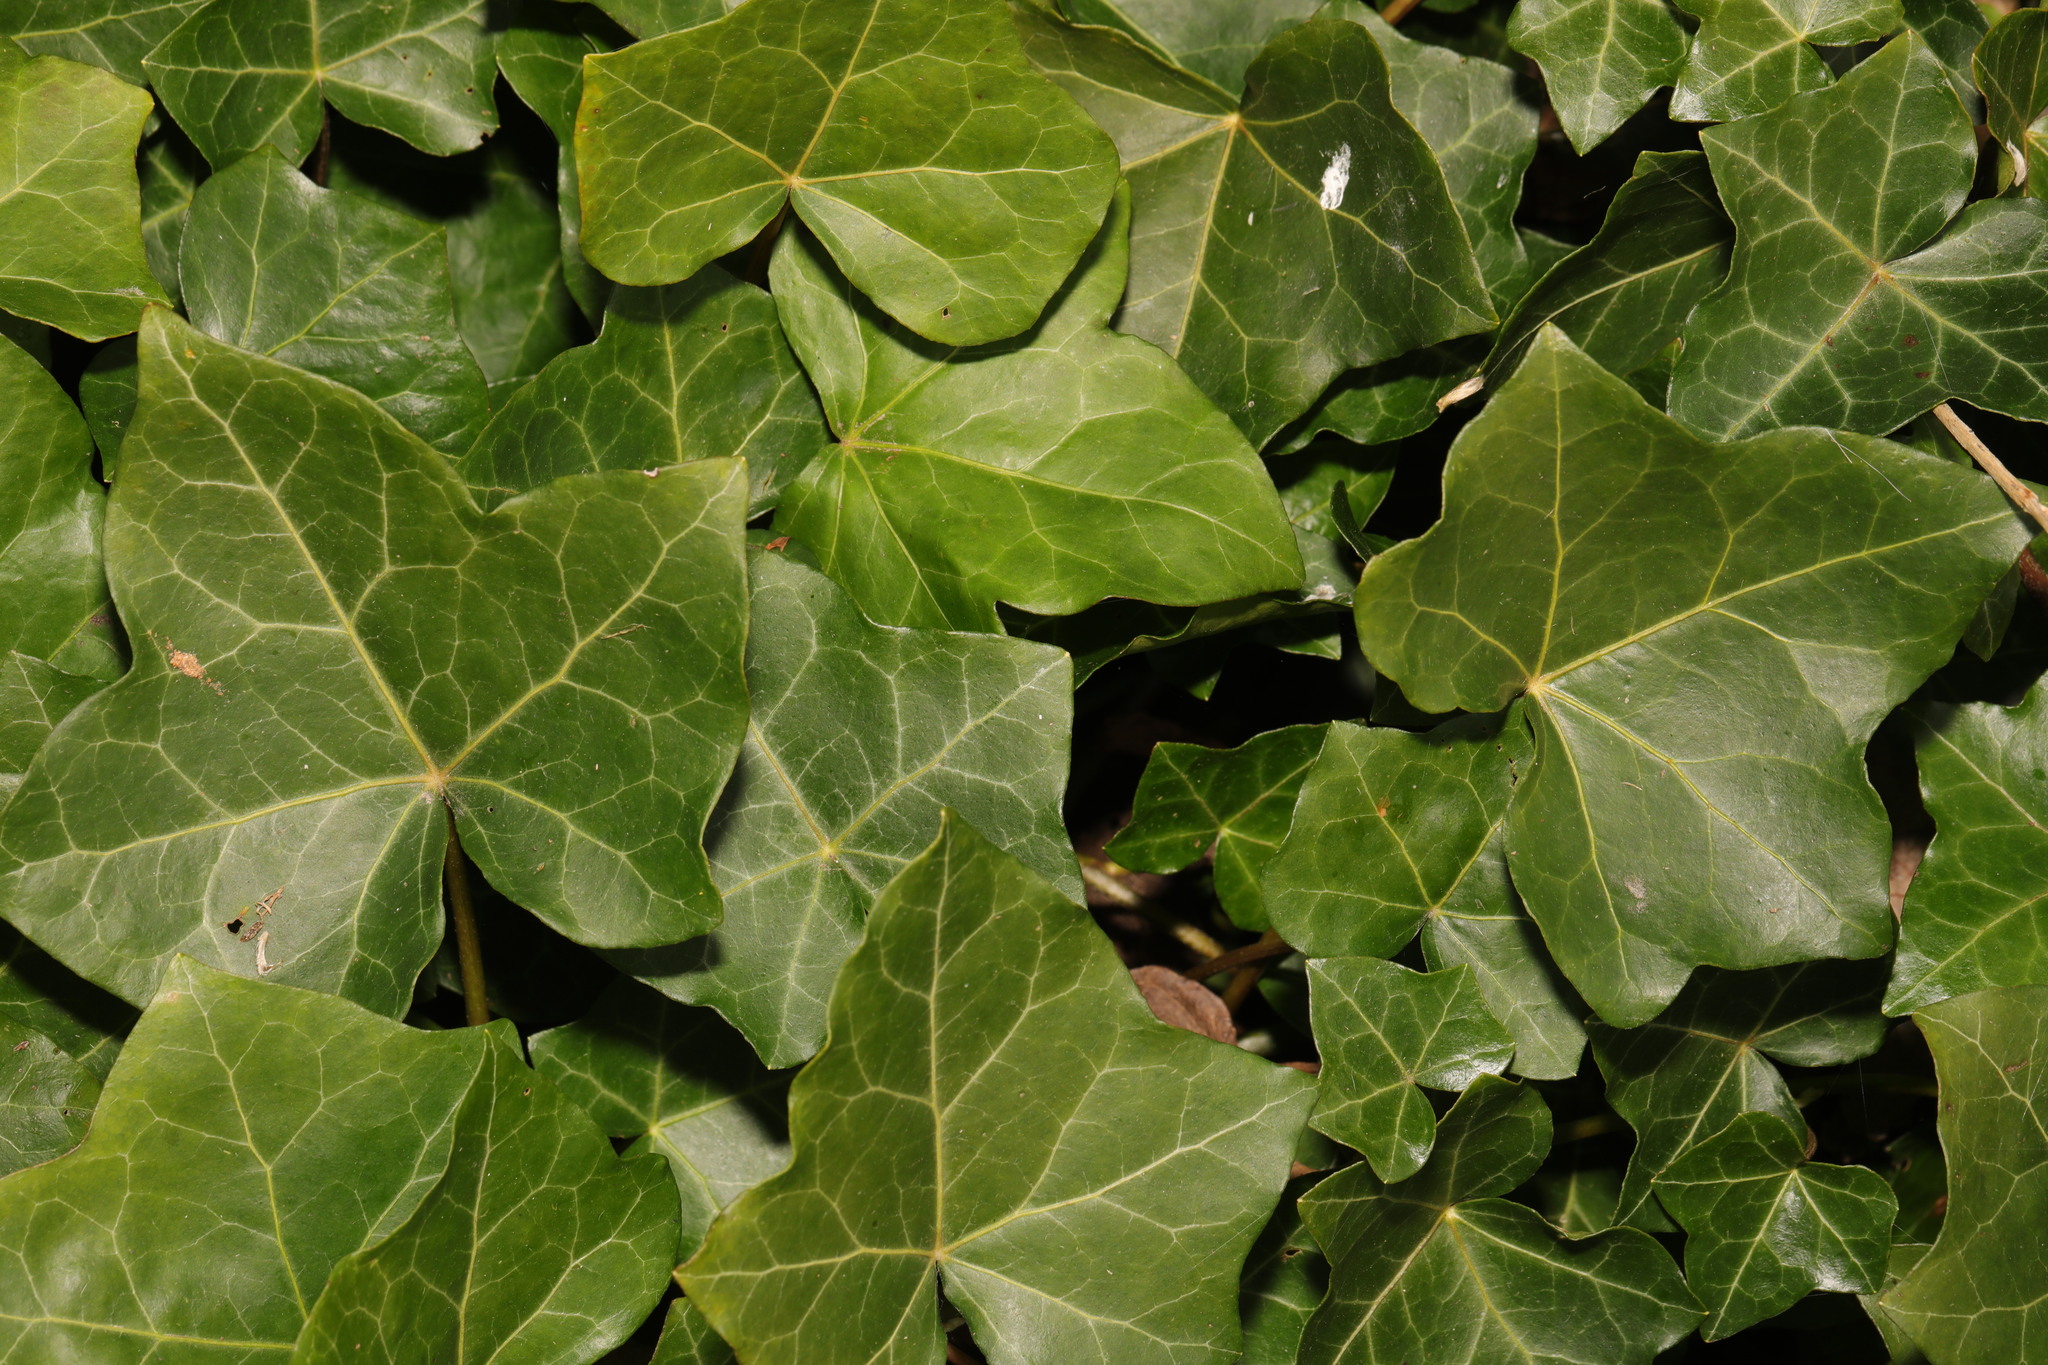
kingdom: Plantae
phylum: Tracheophyta
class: Magnoliopsida
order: Apiales
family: Araliaceae
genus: Hedera
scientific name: Hedera helix
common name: Ivy
